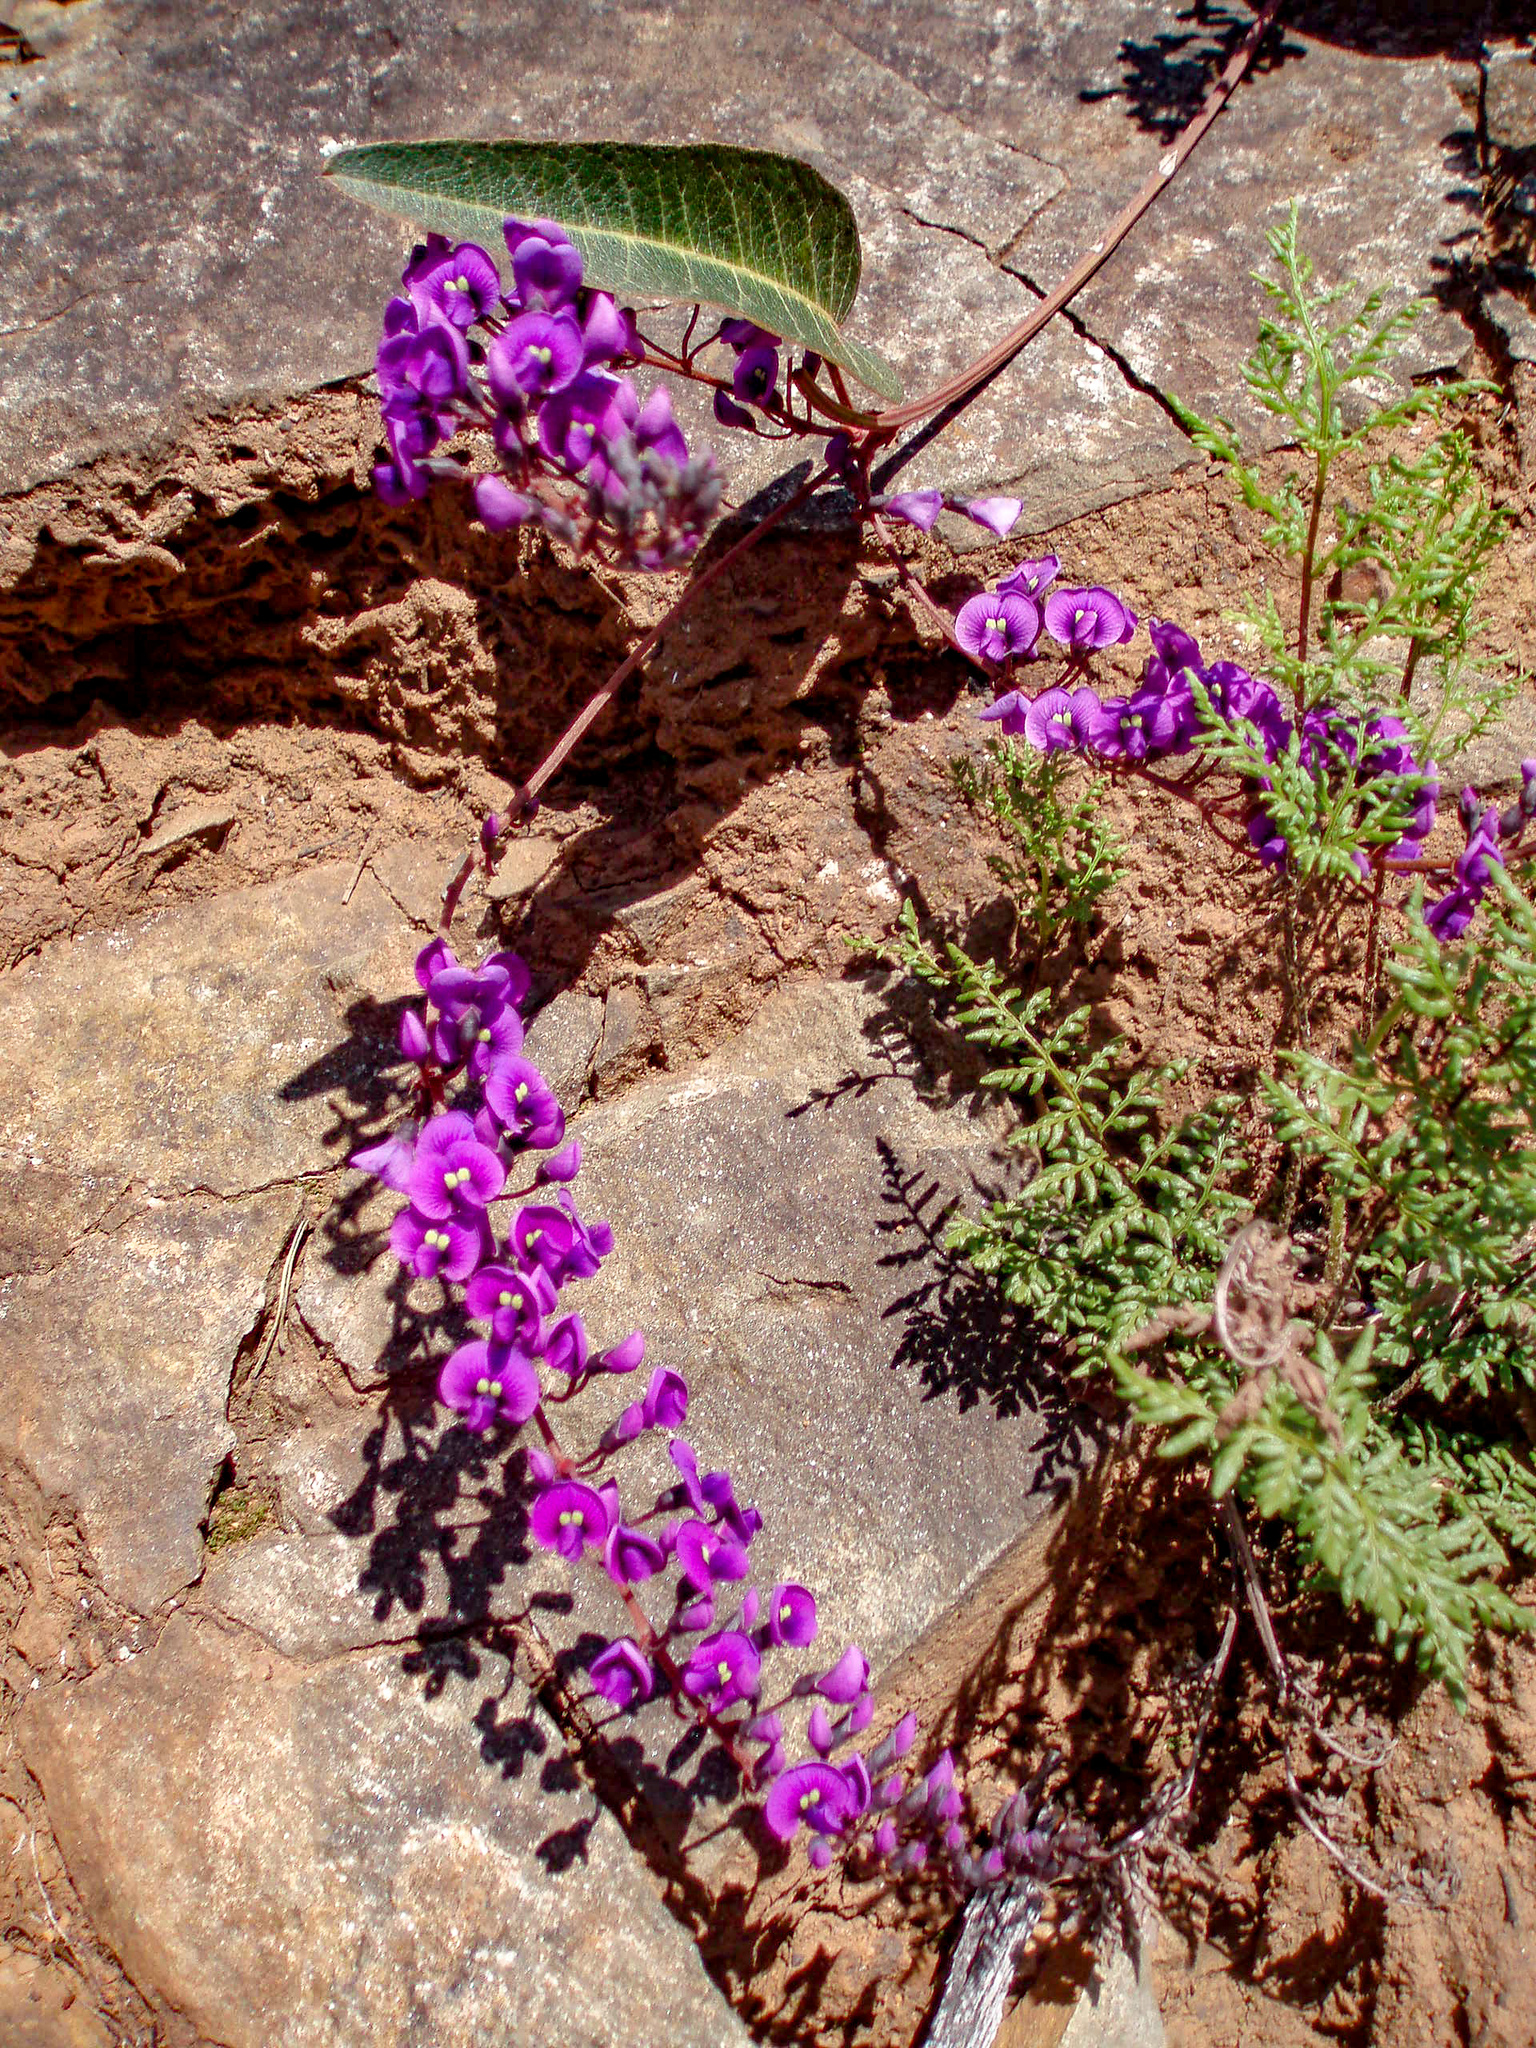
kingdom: Plantae
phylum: Tracheophyta
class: Magnoliopsida
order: Fabales
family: Fabaceae
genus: Hardenbergia
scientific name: Hardenbergia violacea
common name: Coral-pea
